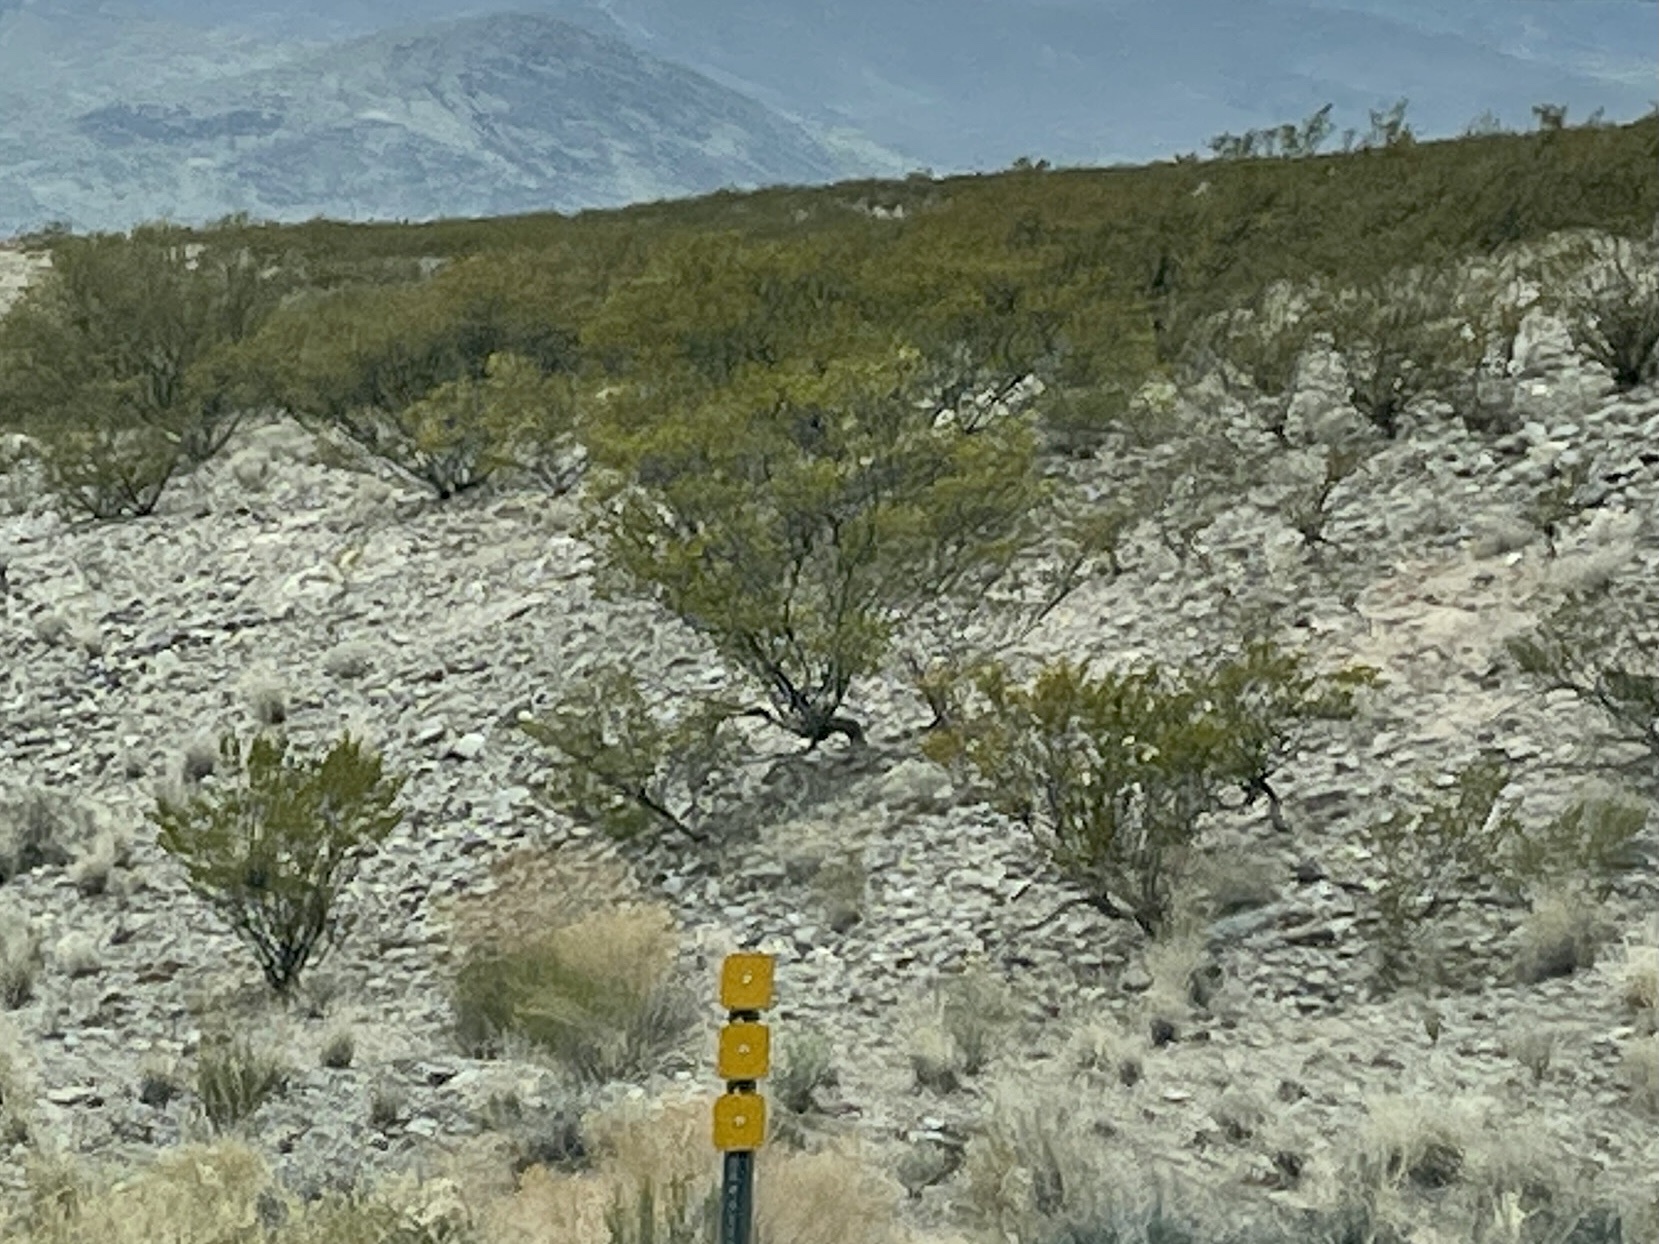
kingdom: Plantae
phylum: Tracheophyta
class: Magnoliopsida
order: Zygophyllales
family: Zygophyllaceae
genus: Larrea
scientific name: Larrea tridentata
